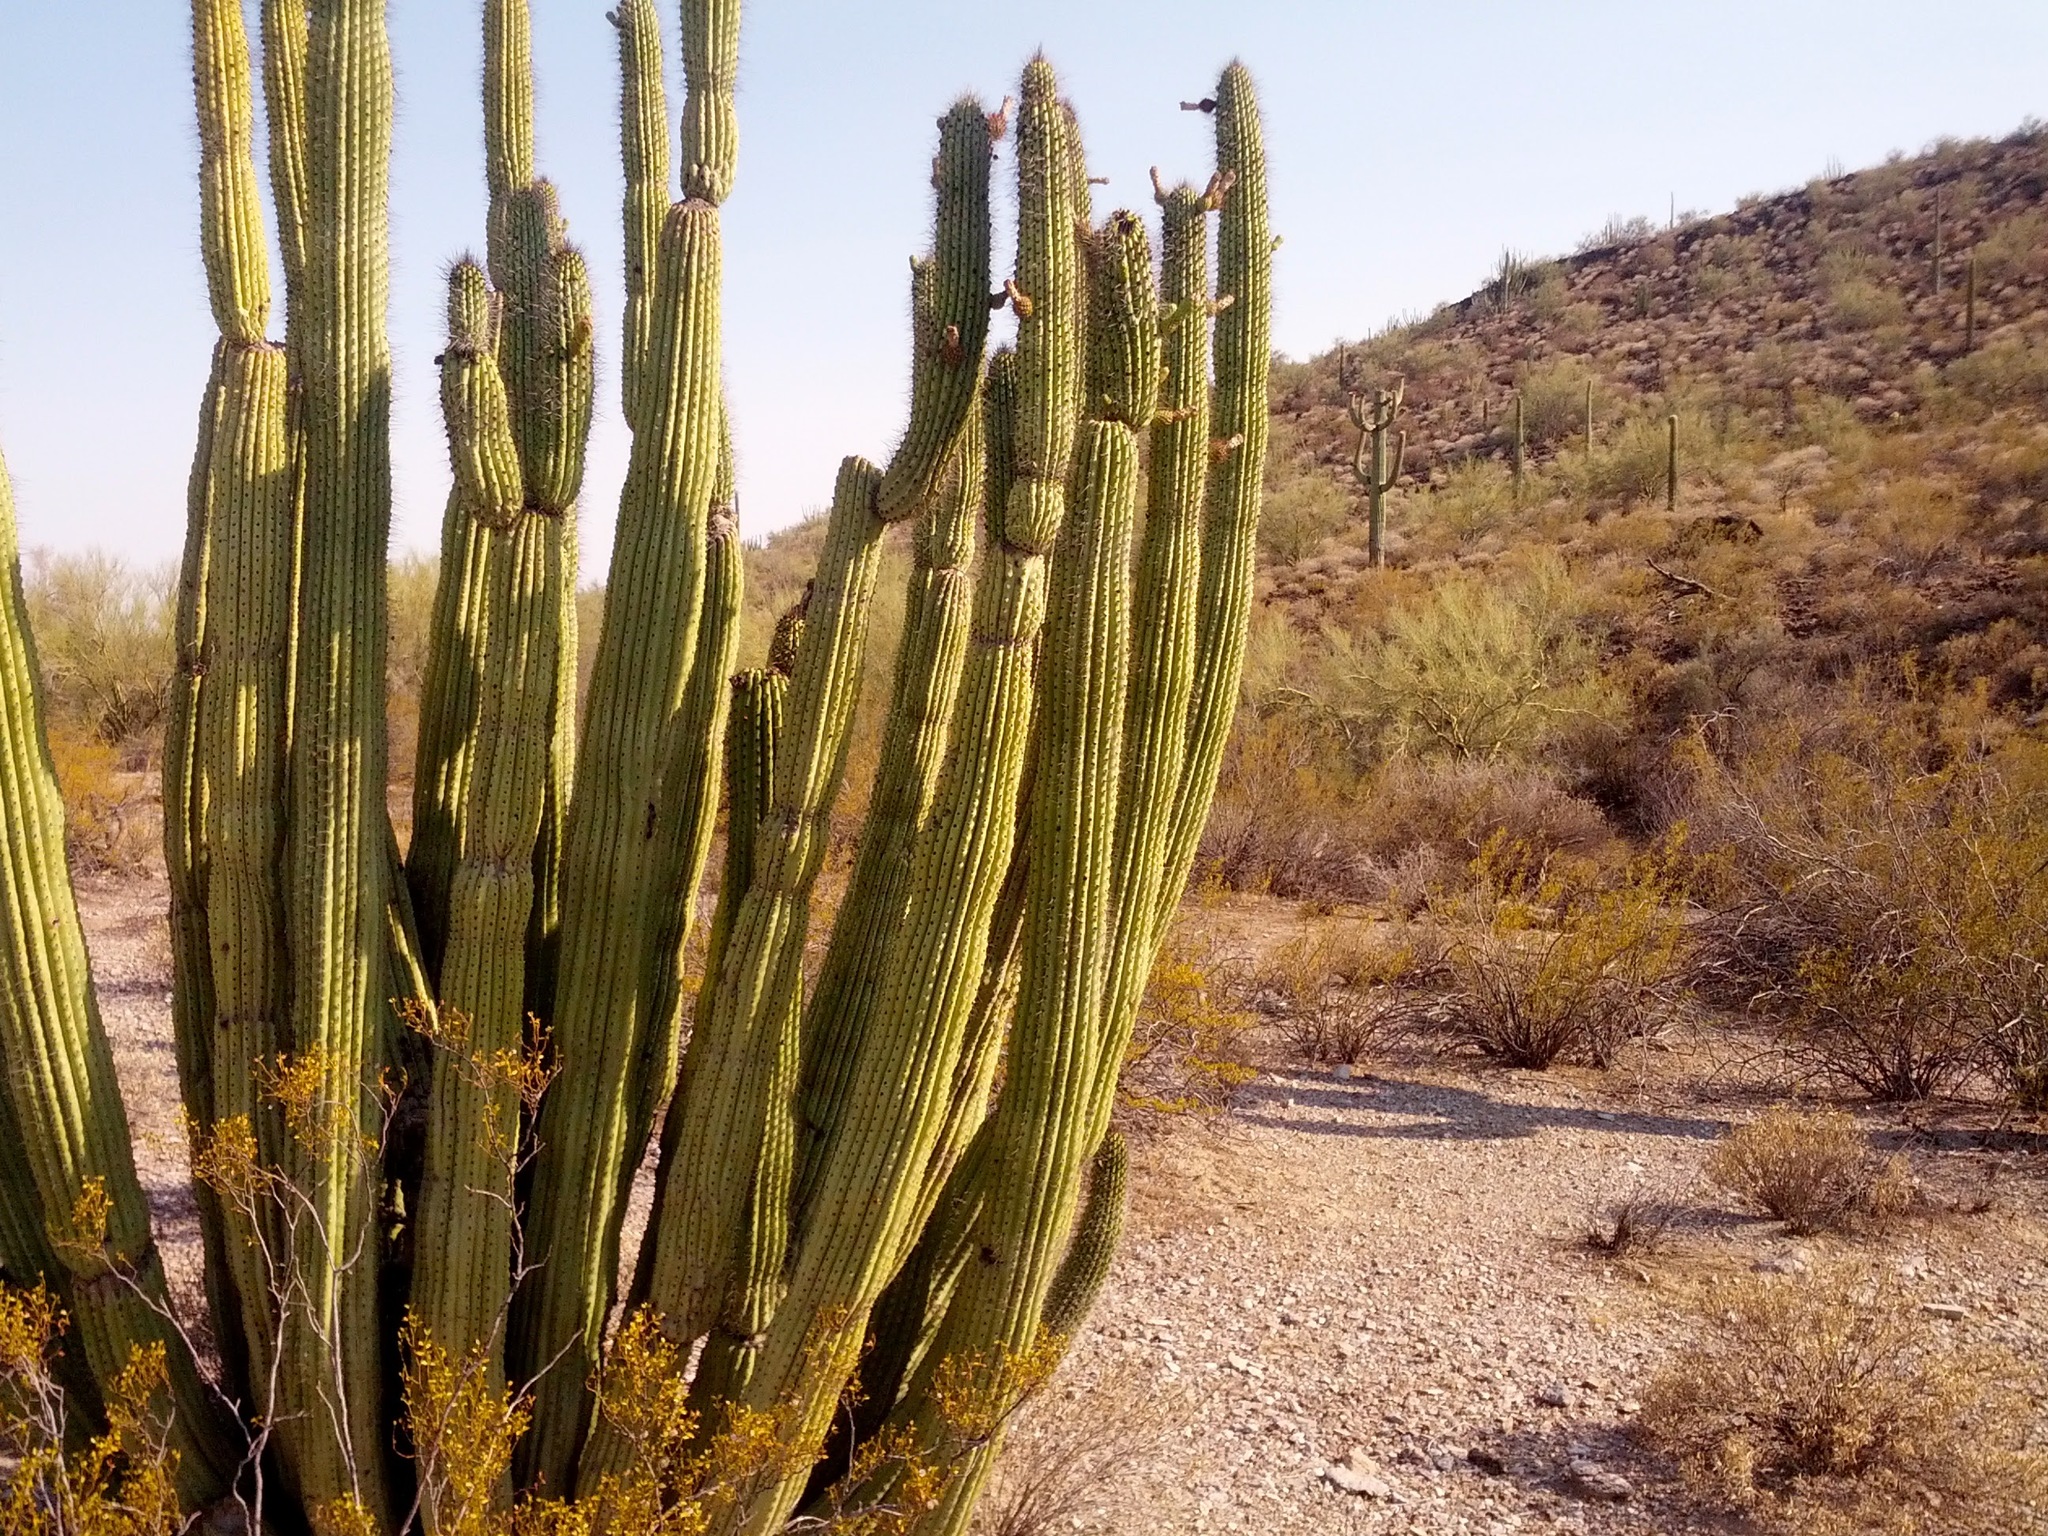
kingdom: Plantae
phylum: Tracheophyta
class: Magnoliopsida
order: Caryophyllales
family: Cactaceae
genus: Stenocereus
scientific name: Stenocereus thurberi
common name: Organ pipe cactus
